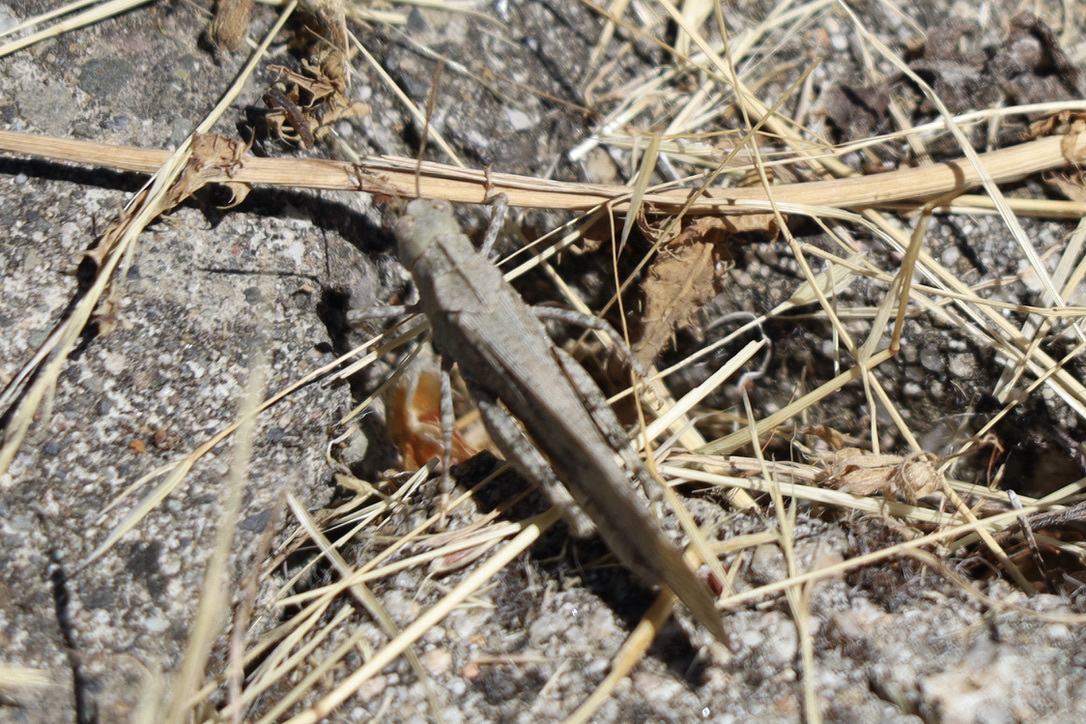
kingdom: Animalia
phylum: Arthropoda
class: Insecta
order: Orthoptera
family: Acrididae
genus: Dissosteira
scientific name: Dissosteira carolina
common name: Carolina grasshopper
